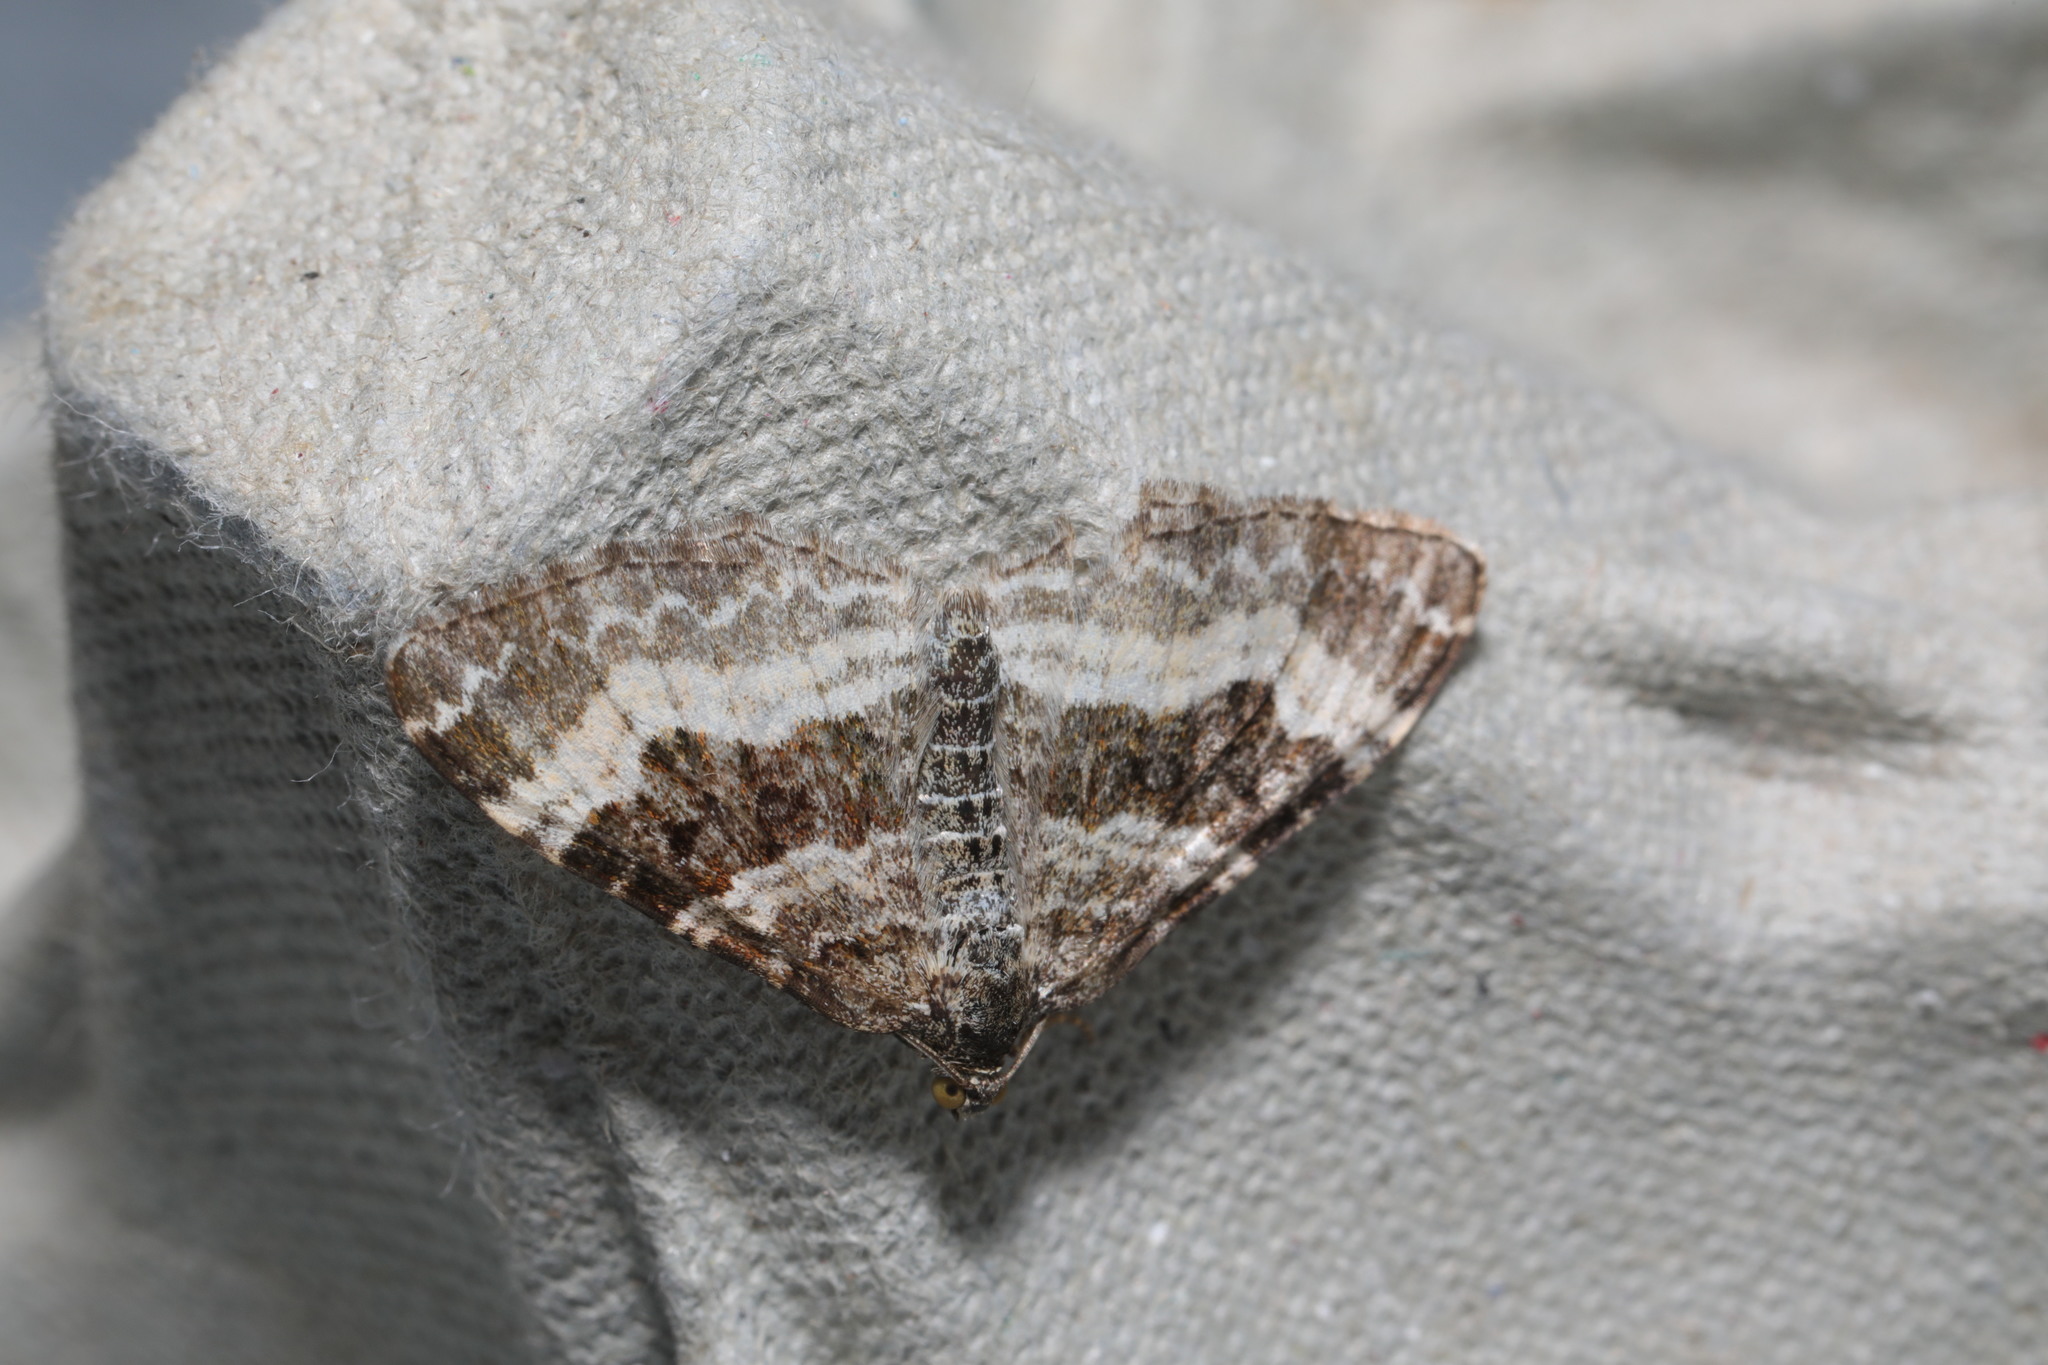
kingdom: Animalia
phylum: Arthropoda
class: Insecta
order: Lepidoptera
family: Geometridae
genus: Epirrhoe
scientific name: Epirrhoe alternata
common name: Common carpet
